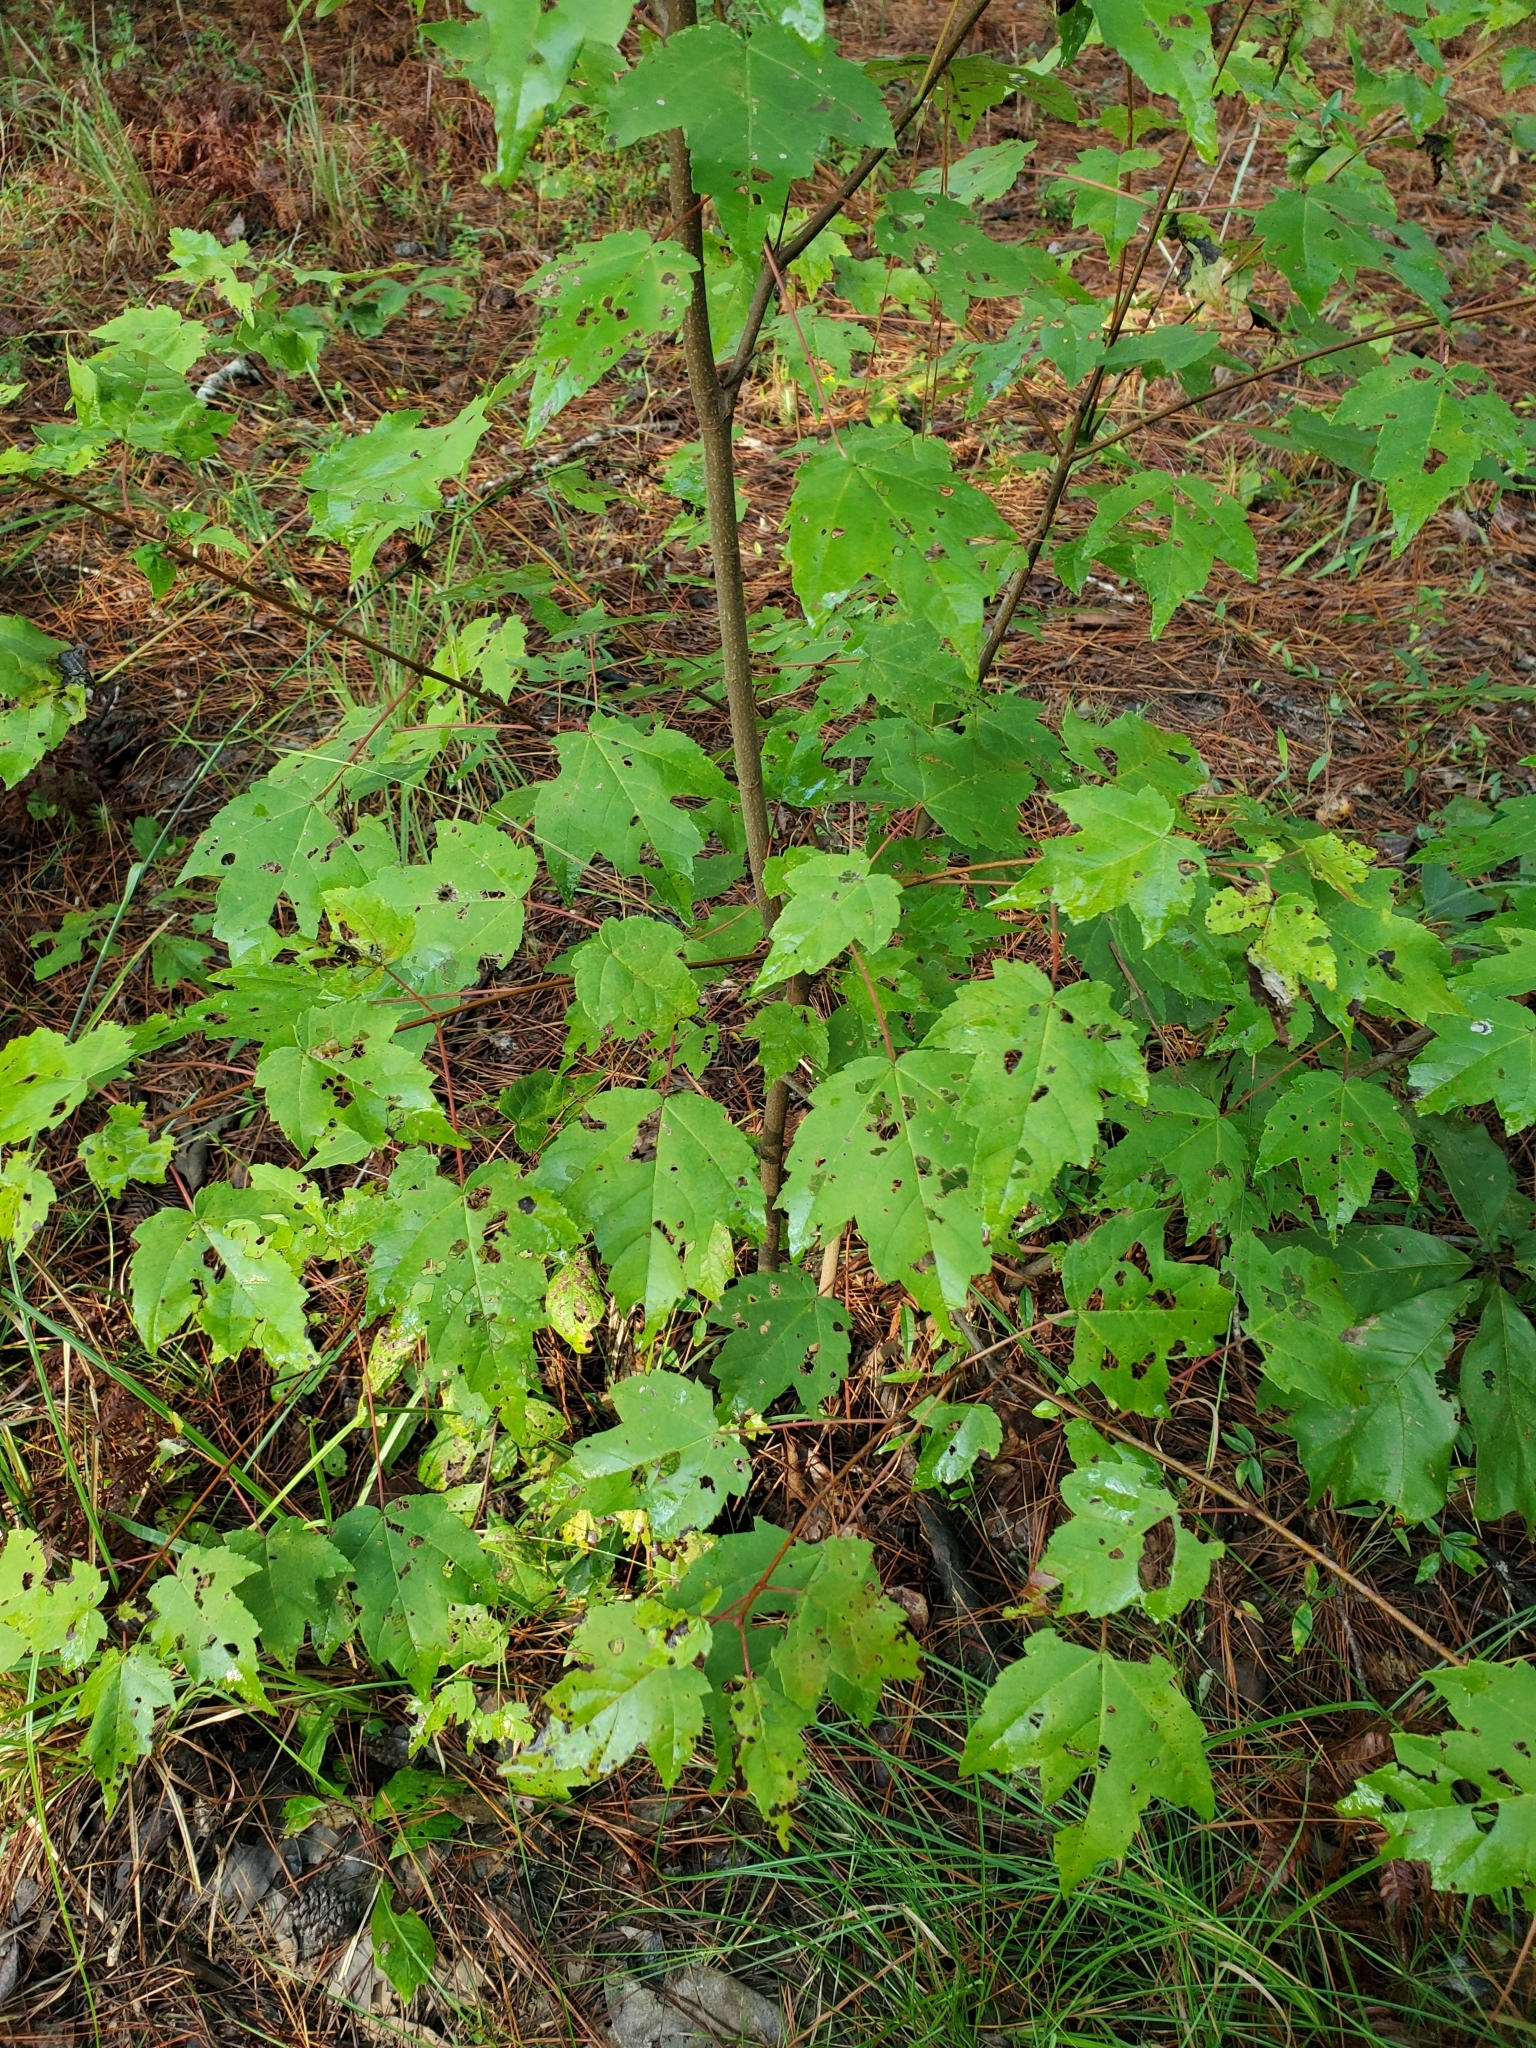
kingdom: Plantae
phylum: Tracheophyta
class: Magnoliopsida
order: Sapindales
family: Sapindaceae
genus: Acer
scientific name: Acer rubrum
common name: Red maple
